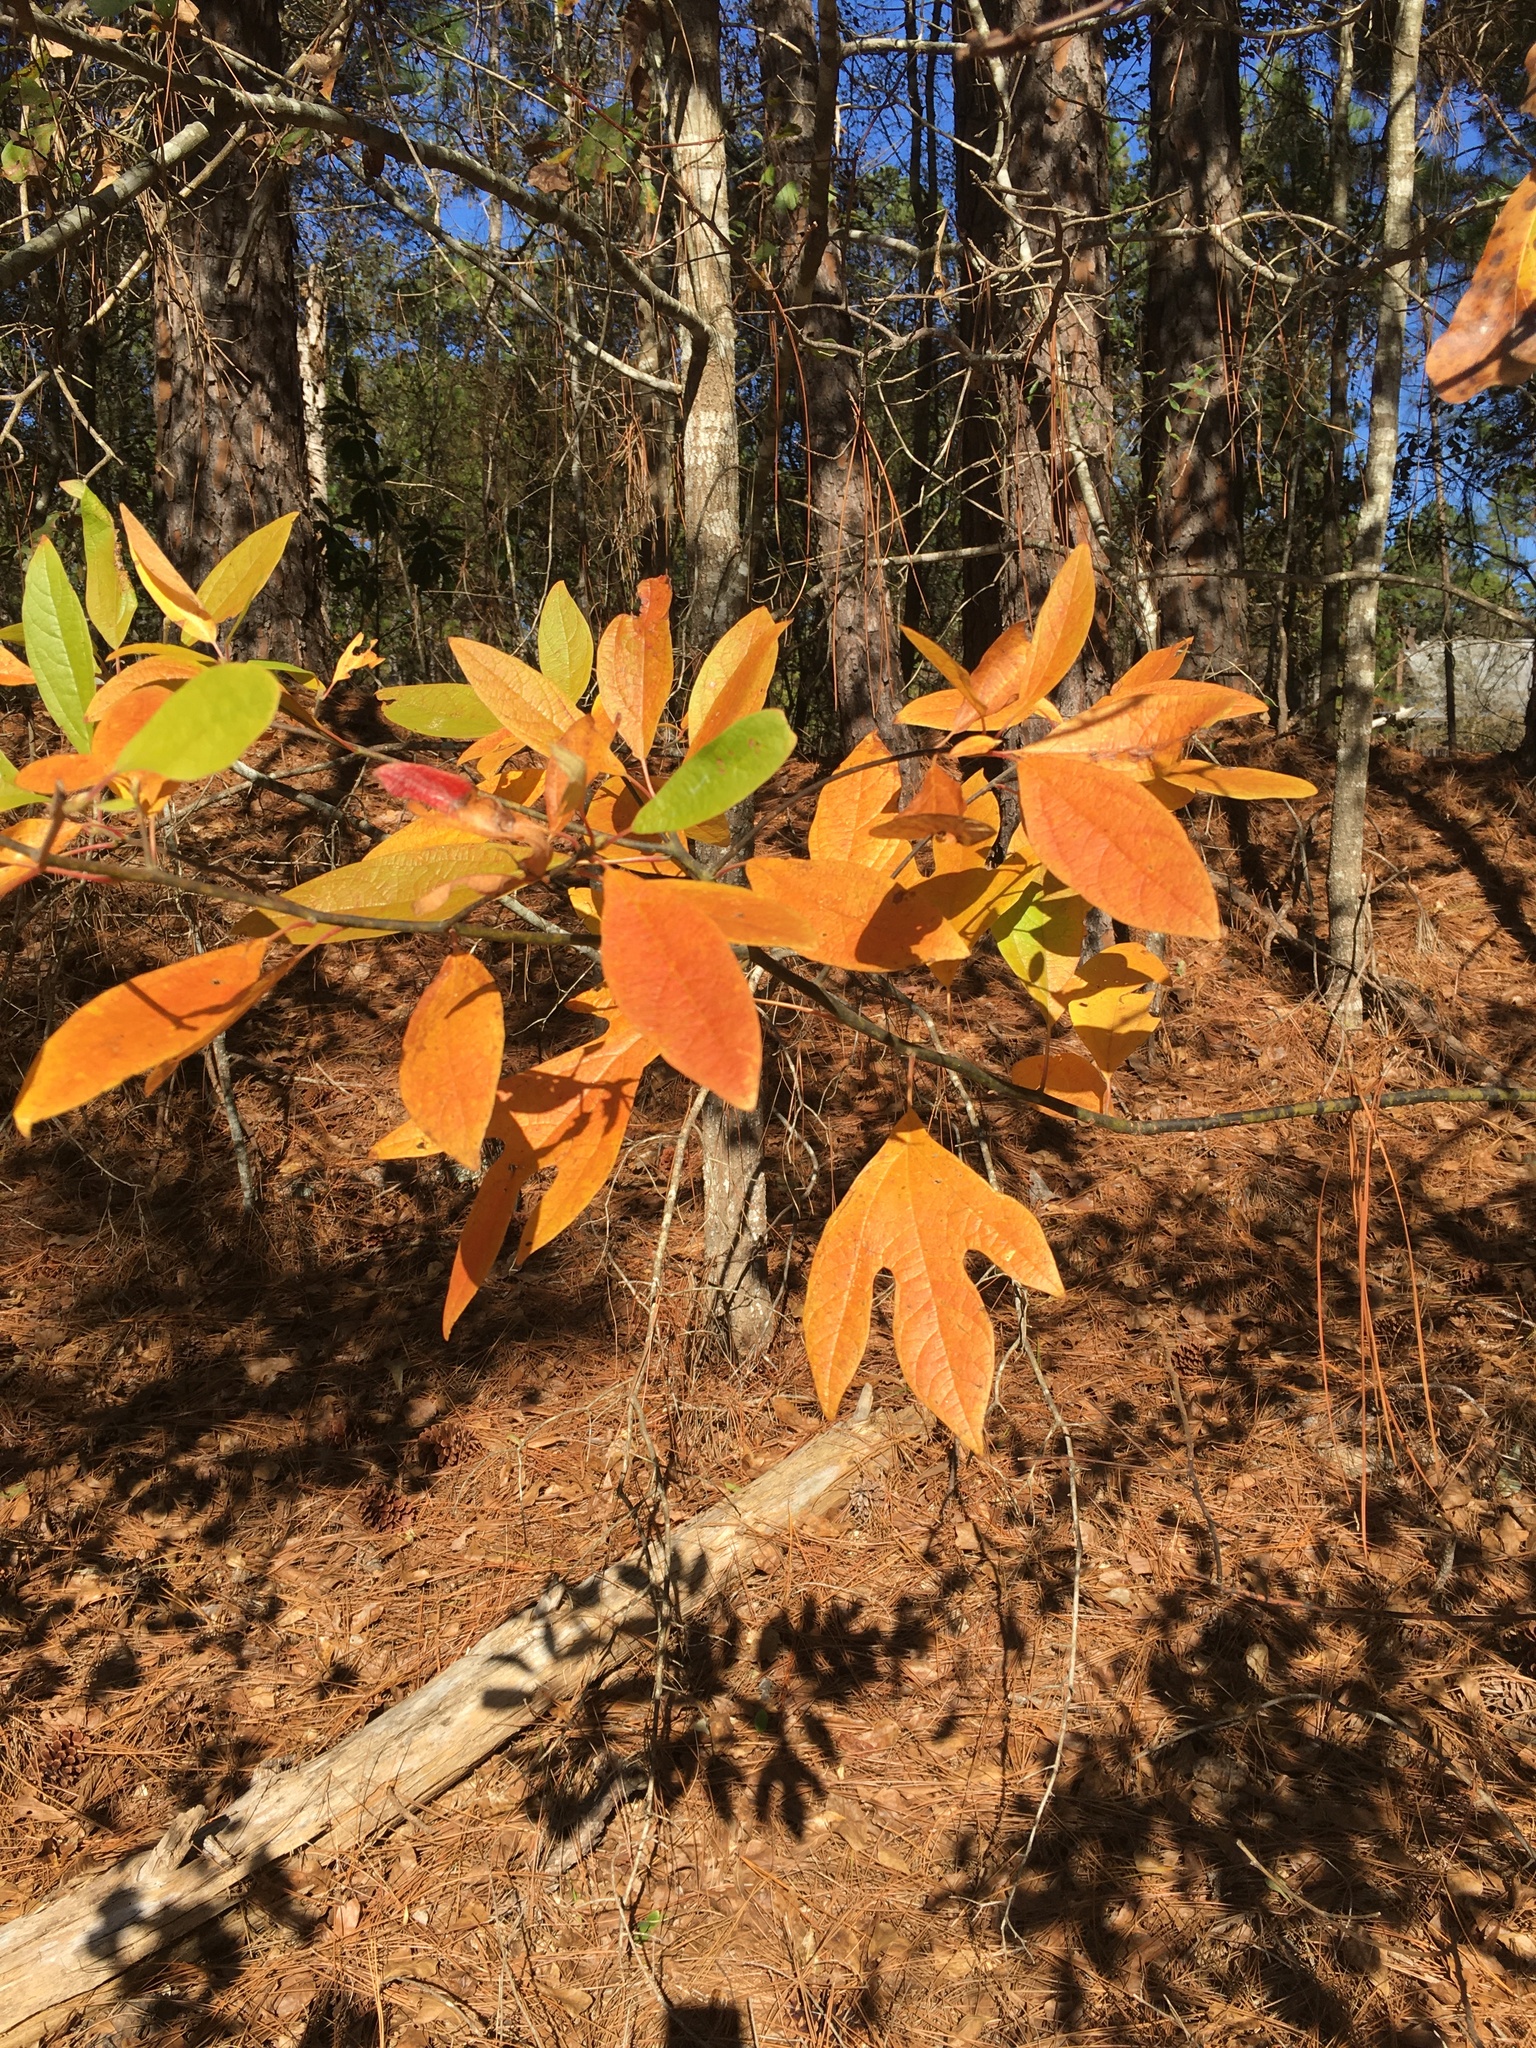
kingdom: Plantae
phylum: Tracheophyta
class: Magnoliopsida
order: Laurales
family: Lauraceae
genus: Sassafras
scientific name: Sassafras albidum
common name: Sassafras
